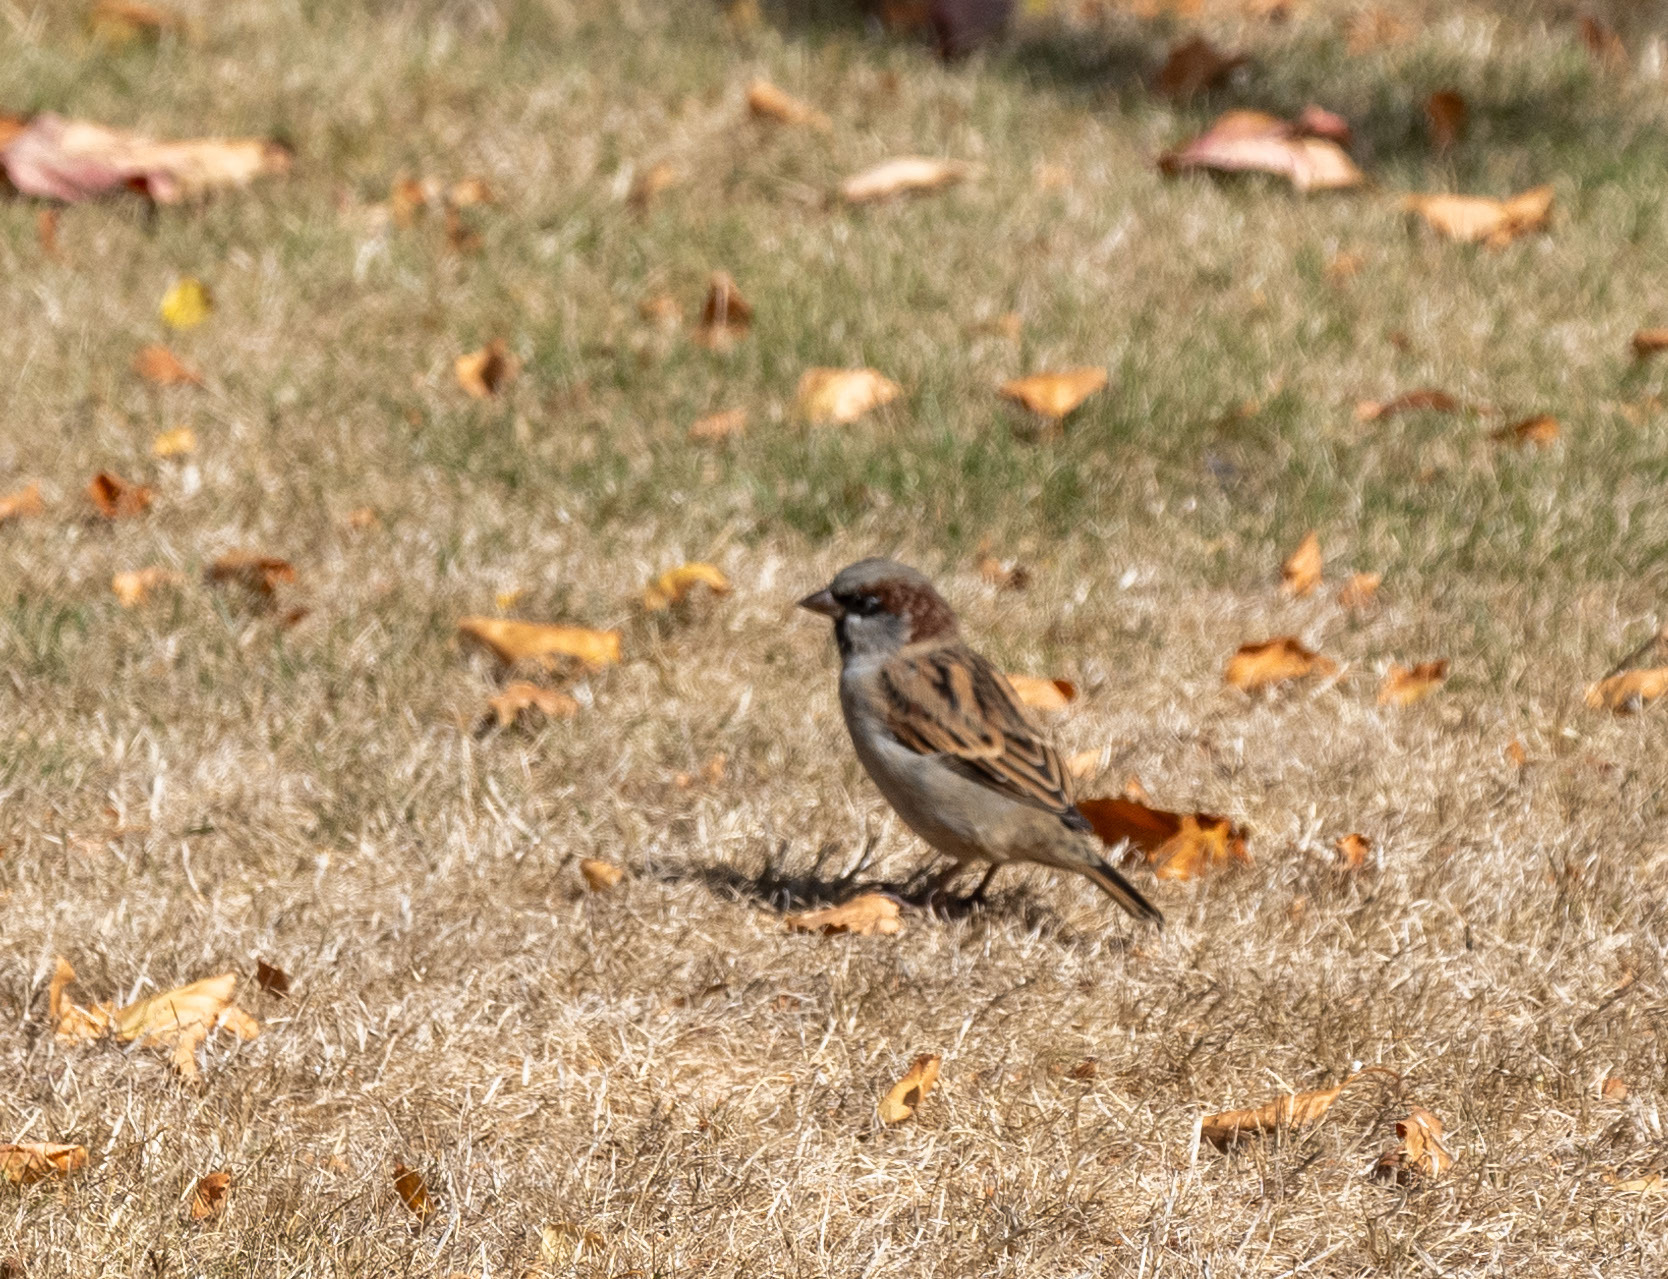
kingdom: Animalia
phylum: Chordata
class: Aves
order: Passeriformes
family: Passeridae
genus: Passer
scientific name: Passer domesticus
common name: House sparrow
